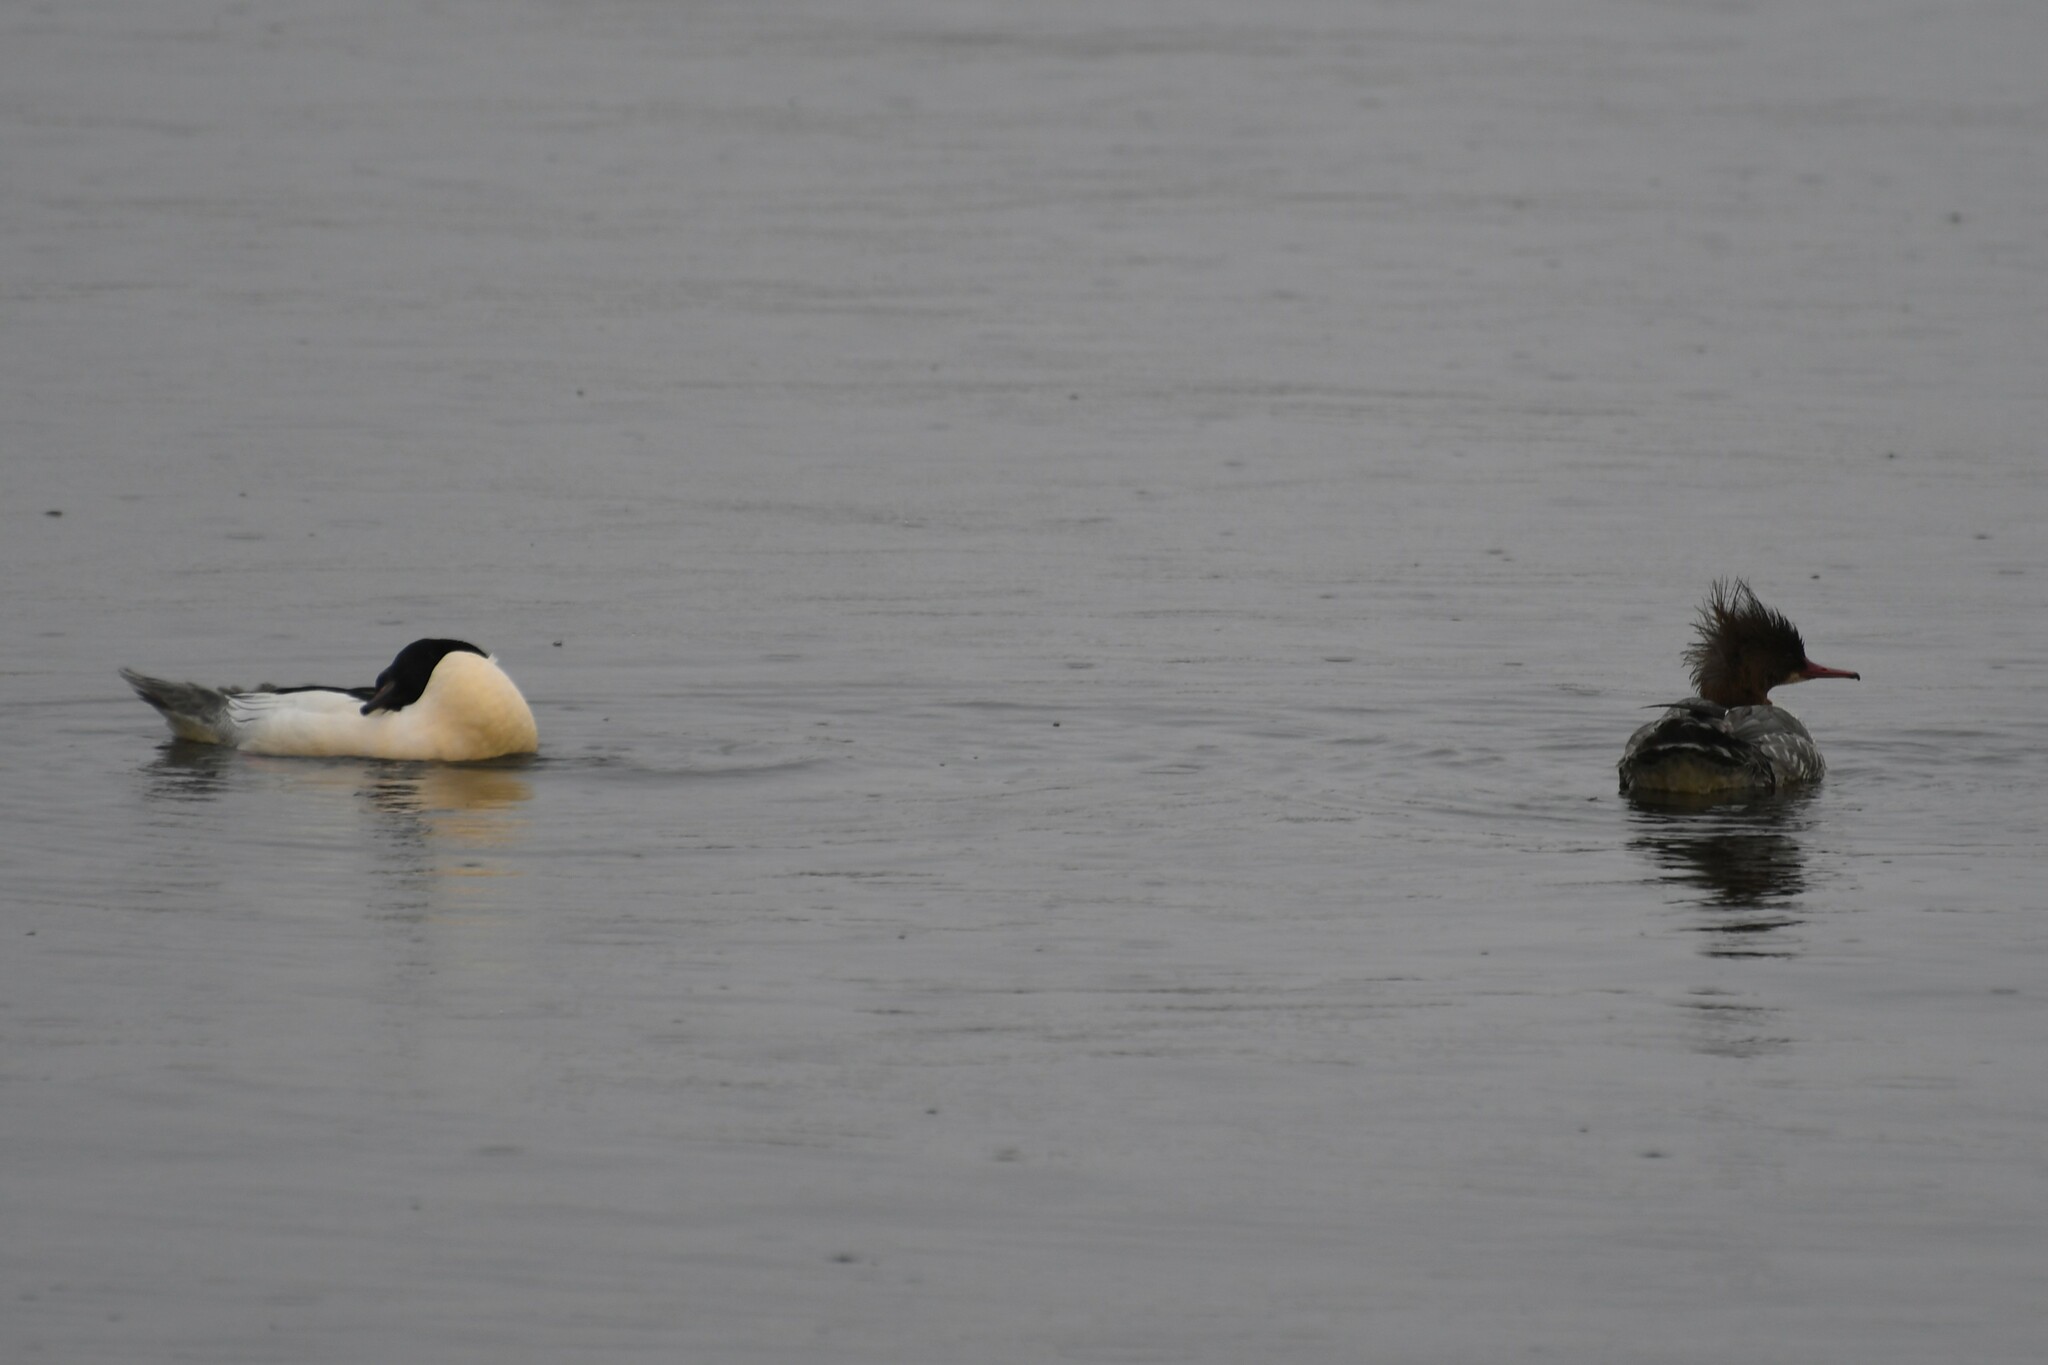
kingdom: Animalia
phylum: Chordata
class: Aves
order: Anseriformes
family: Anatidae
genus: Mergus
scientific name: Mergus merganser
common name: Common merganser
